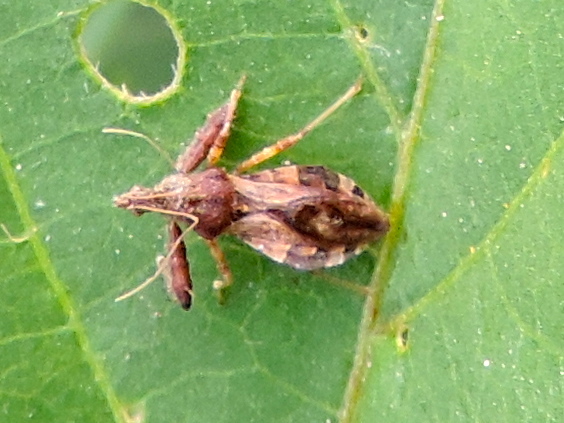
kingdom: Animalia
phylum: Arthropoda
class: Insecta
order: Hemiptera
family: Reduviidae
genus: Sinea
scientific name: Sinea
